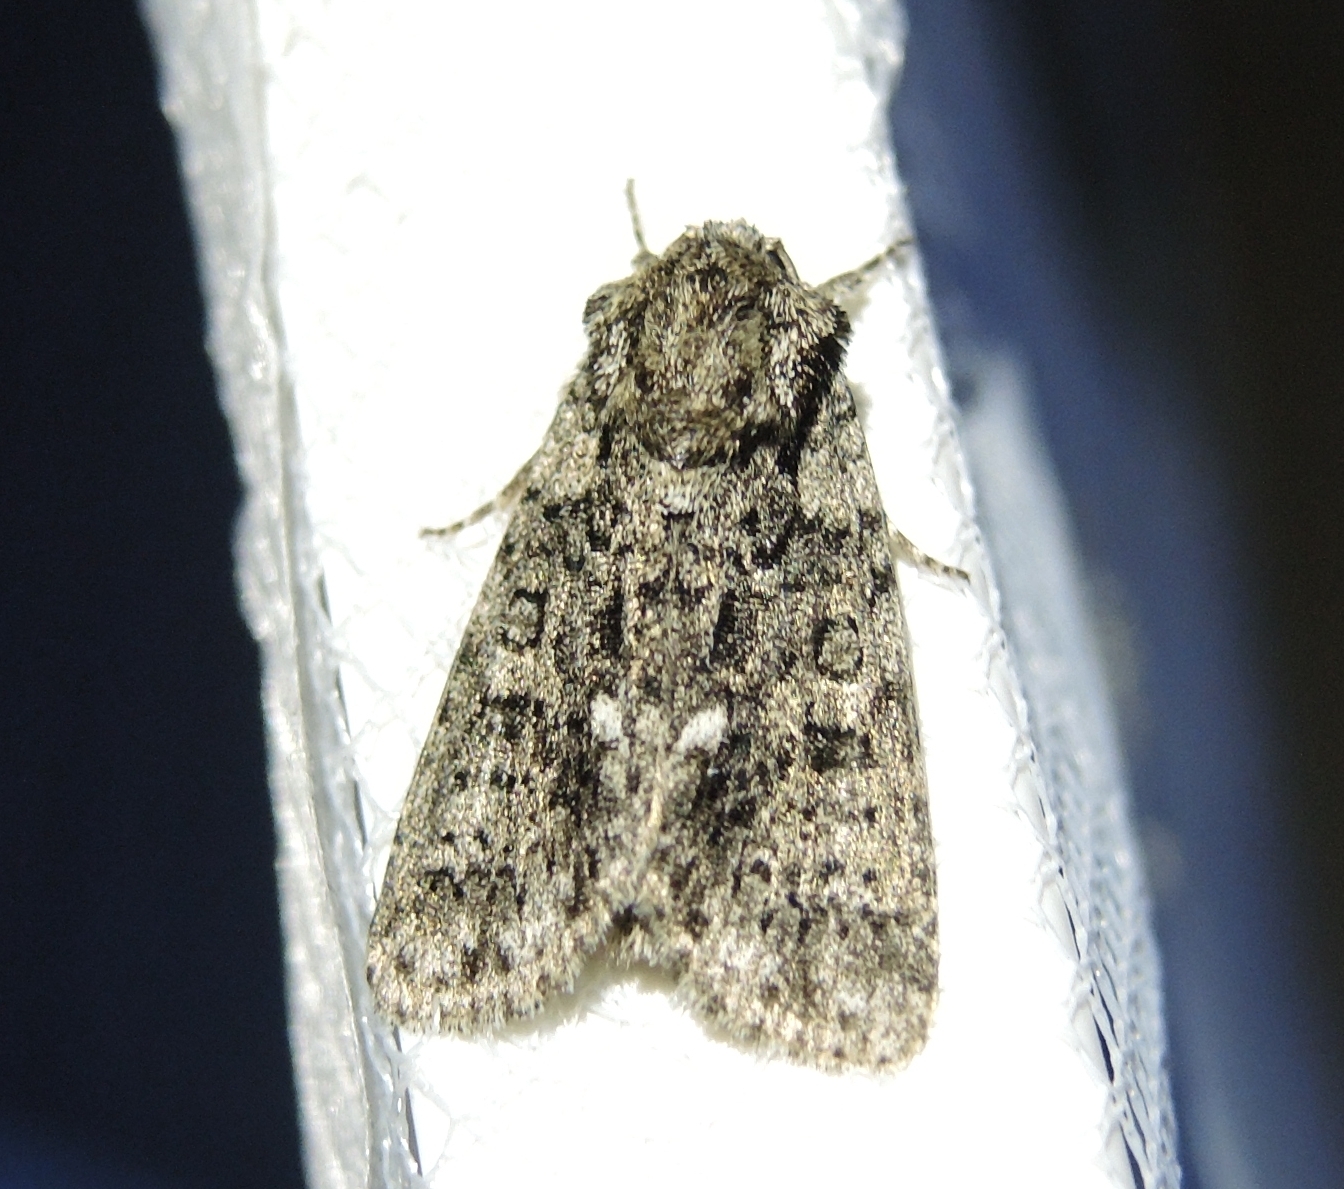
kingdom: Animalia
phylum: Arthropoda
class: Insecta
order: Lepidoptera
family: Noctuidae
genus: Acronicta
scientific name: Acronicta rumicis
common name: Knot grass
